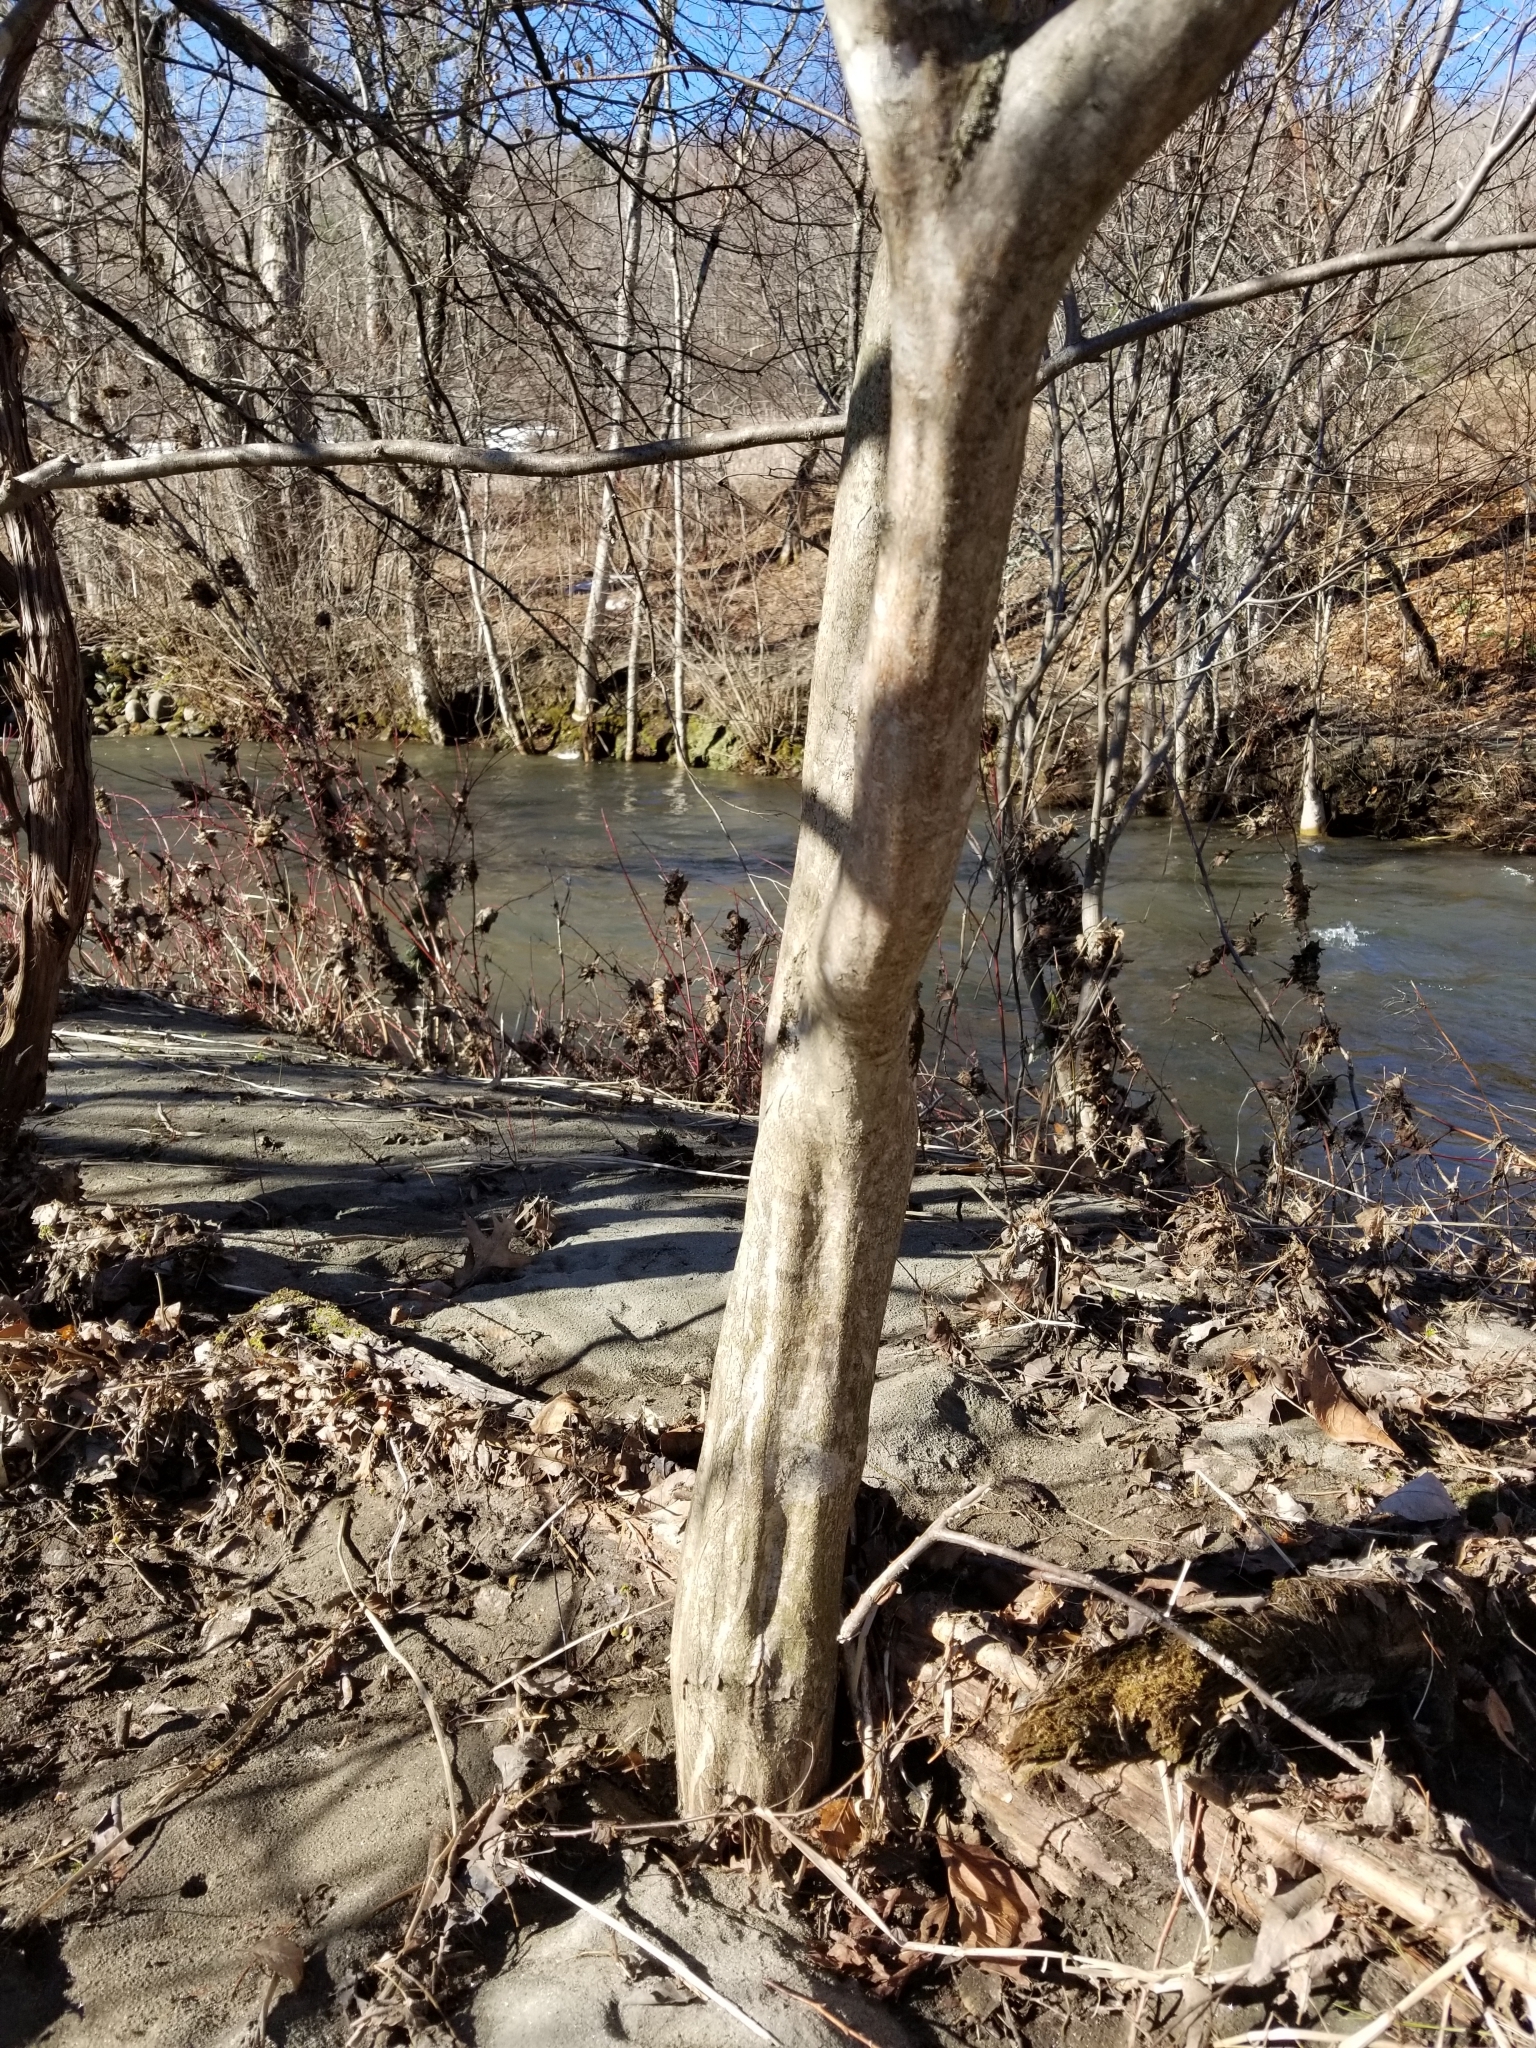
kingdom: Plantae
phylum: Tracheophyta
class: Magnoliopsida
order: Fagales
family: Betulaceae
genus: Carpinus
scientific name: Carpinus caroliniana
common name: American hornbeam
